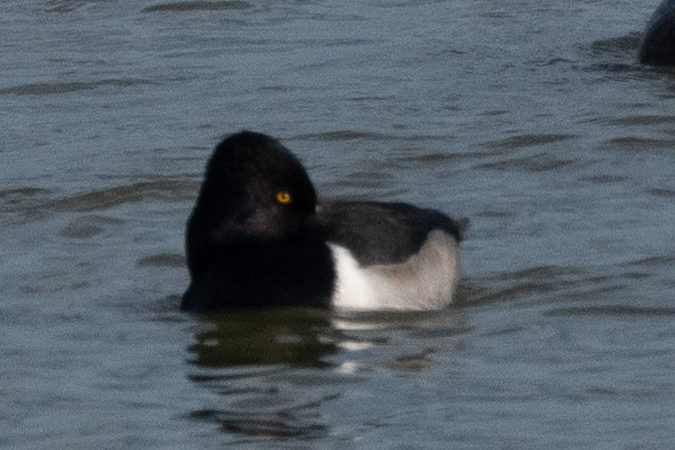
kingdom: Animalia
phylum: Chordata
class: Aves
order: Anseriformes
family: Anatidae
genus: Aythya
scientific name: Aythya collaris
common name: Ring-necked duck
